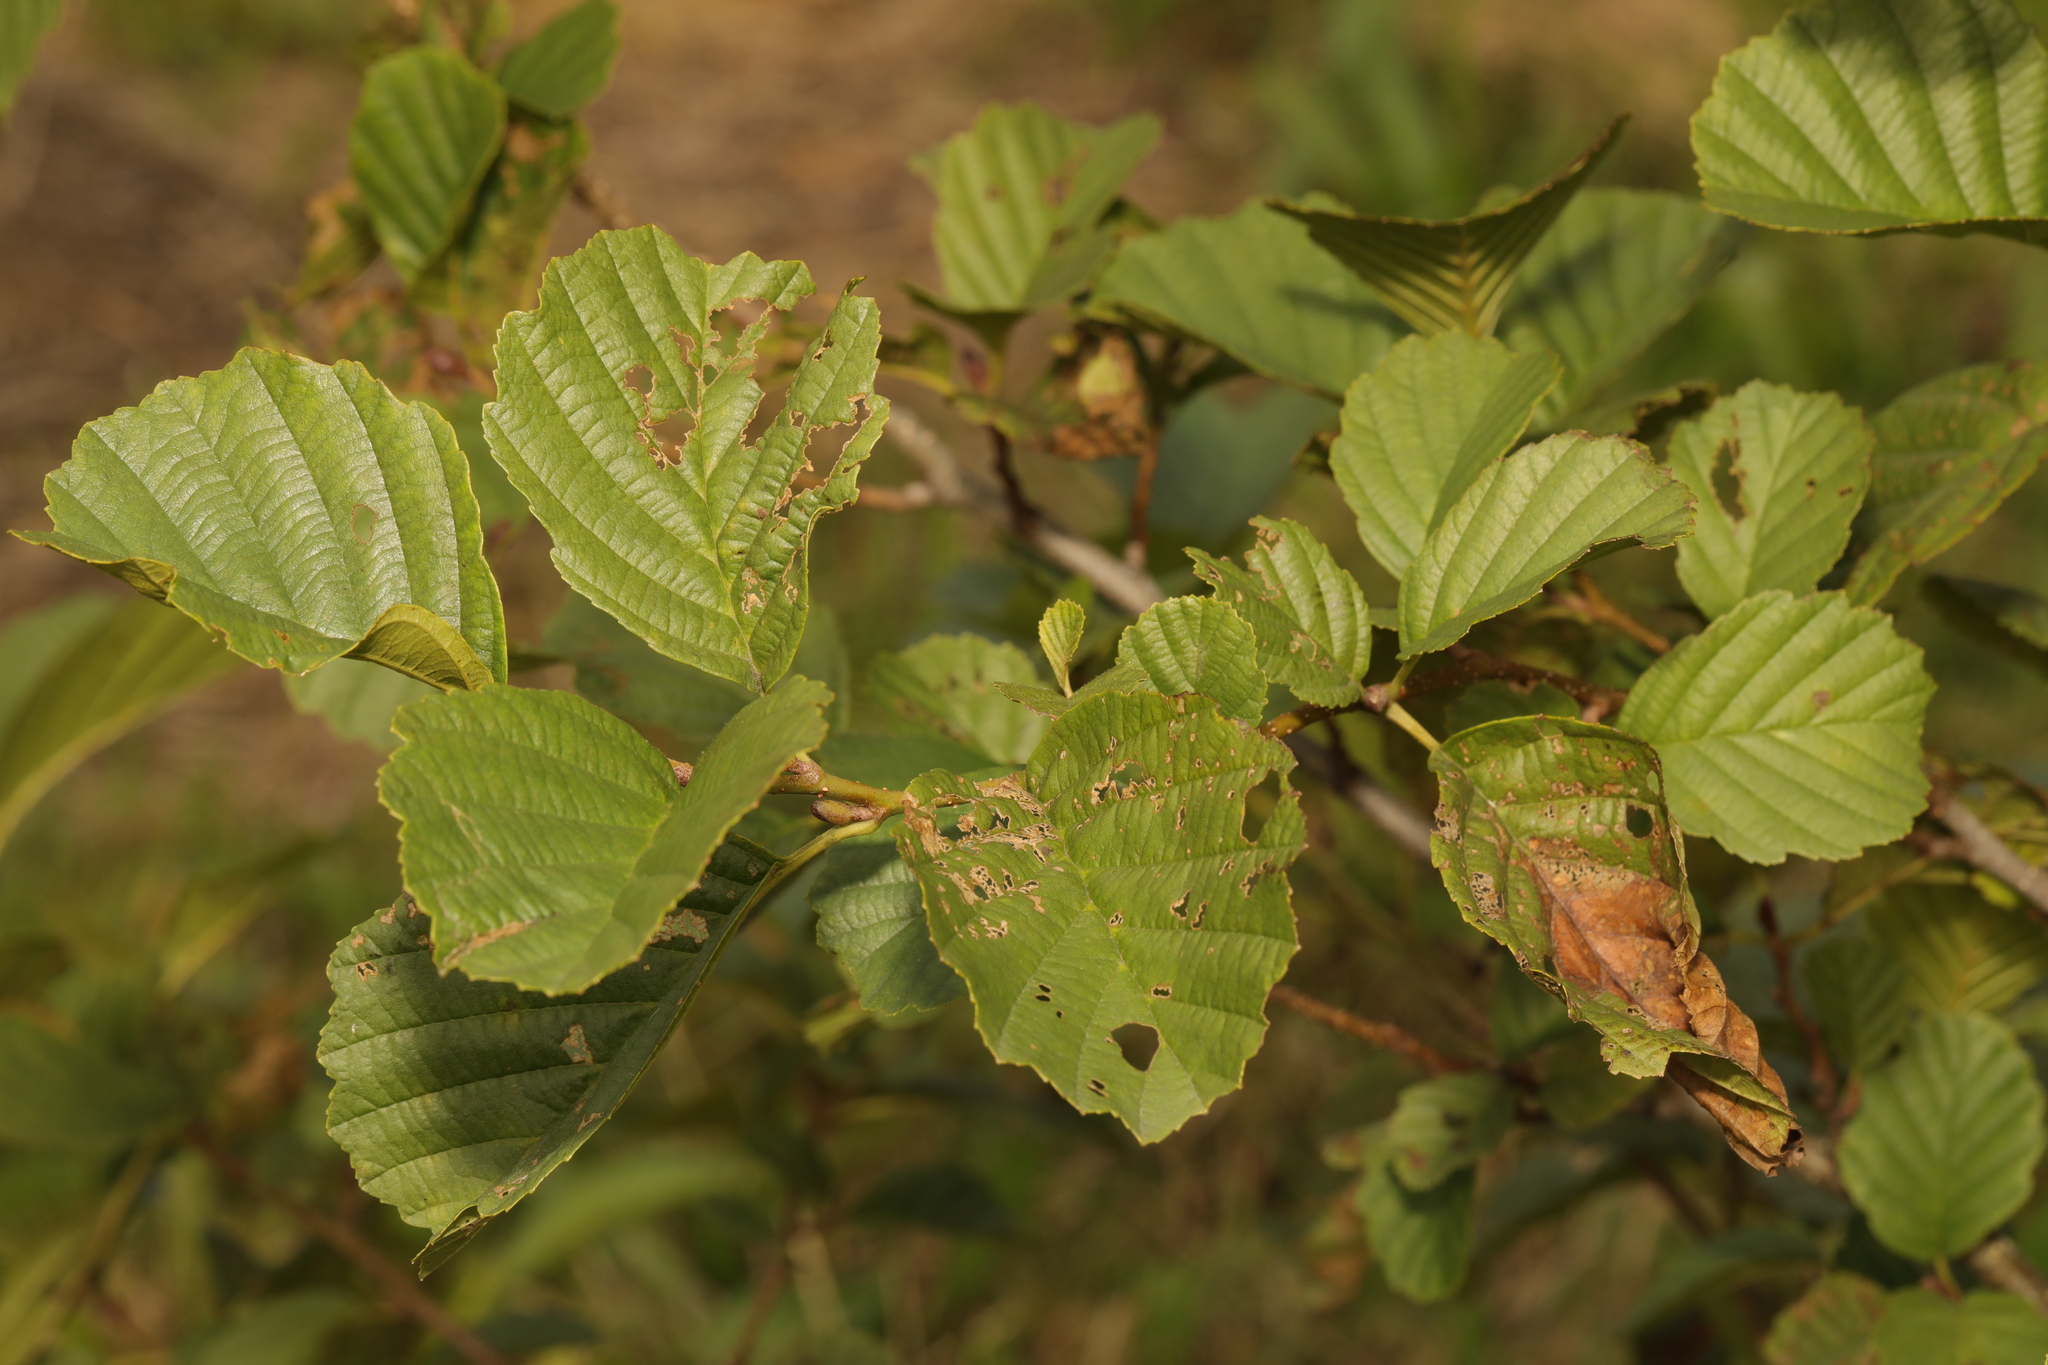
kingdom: Plantae
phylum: Tracheophyta
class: Magnoliopsida
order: Fagales
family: Betulaceae
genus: Alnus
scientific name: Alnus glutinosa
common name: Black alder
